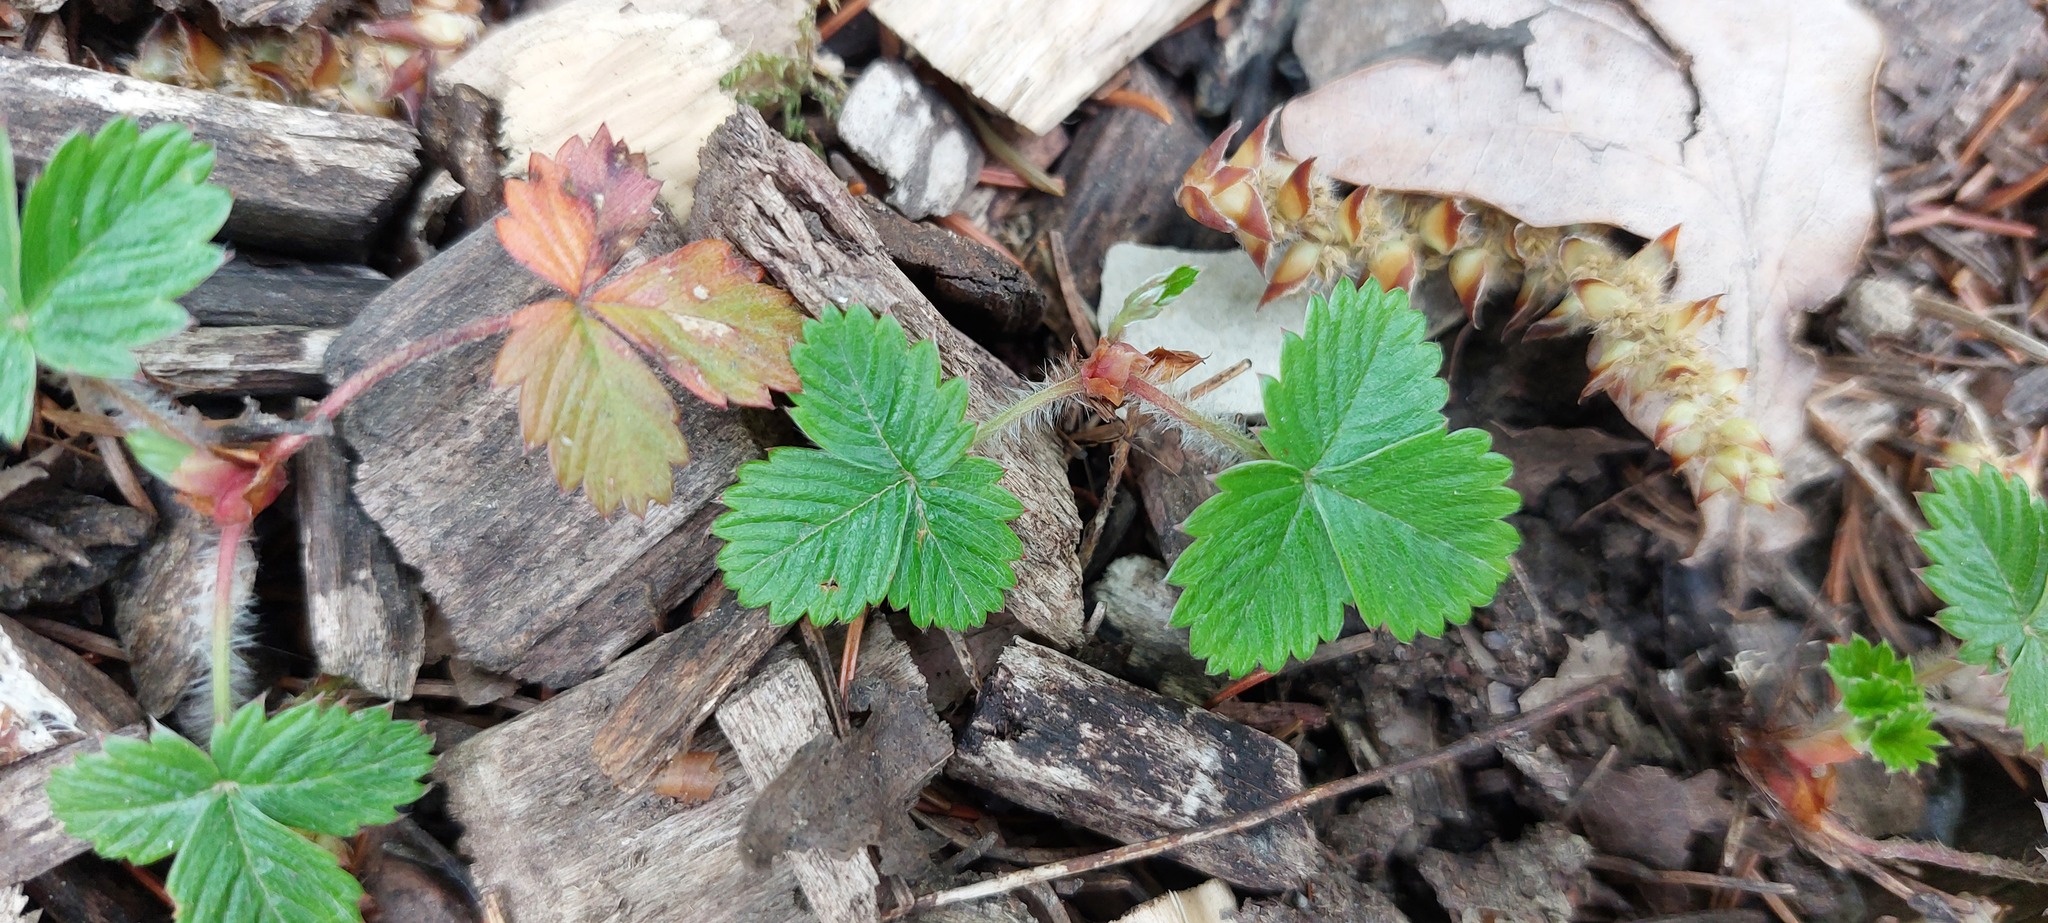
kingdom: Plantae
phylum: Tracheophyta
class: Magnoliopsida
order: Rosales
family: Rosaceae
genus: Fragaria
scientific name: Fragaria vesca
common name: Wild strawberry
